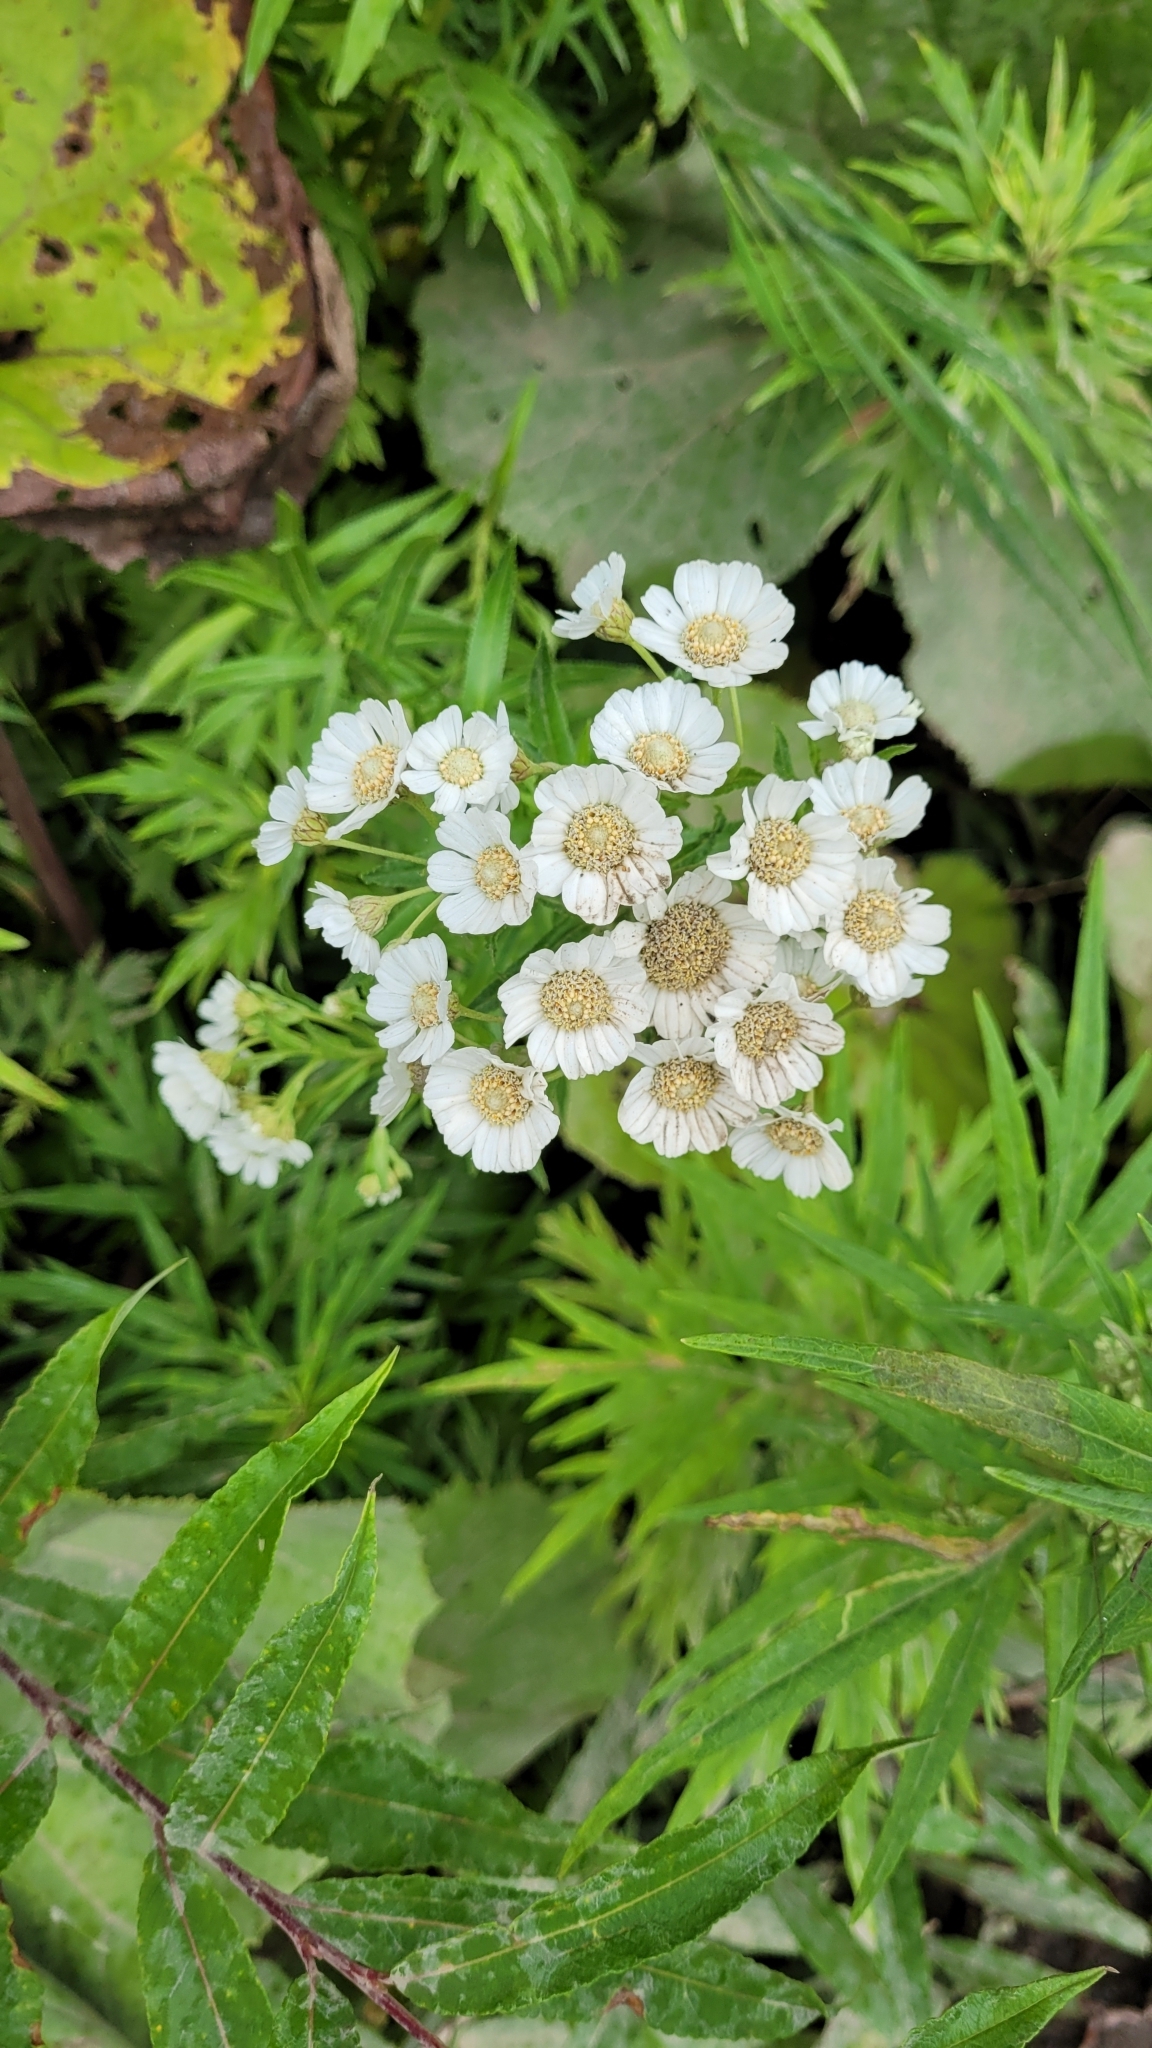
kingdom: Plantae
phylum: Tracheophyta
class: Magnoliopsida
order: Asterales
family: Asteraceae
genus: Achillea
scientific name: Achillea ptarmica
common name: Sneezeweed
